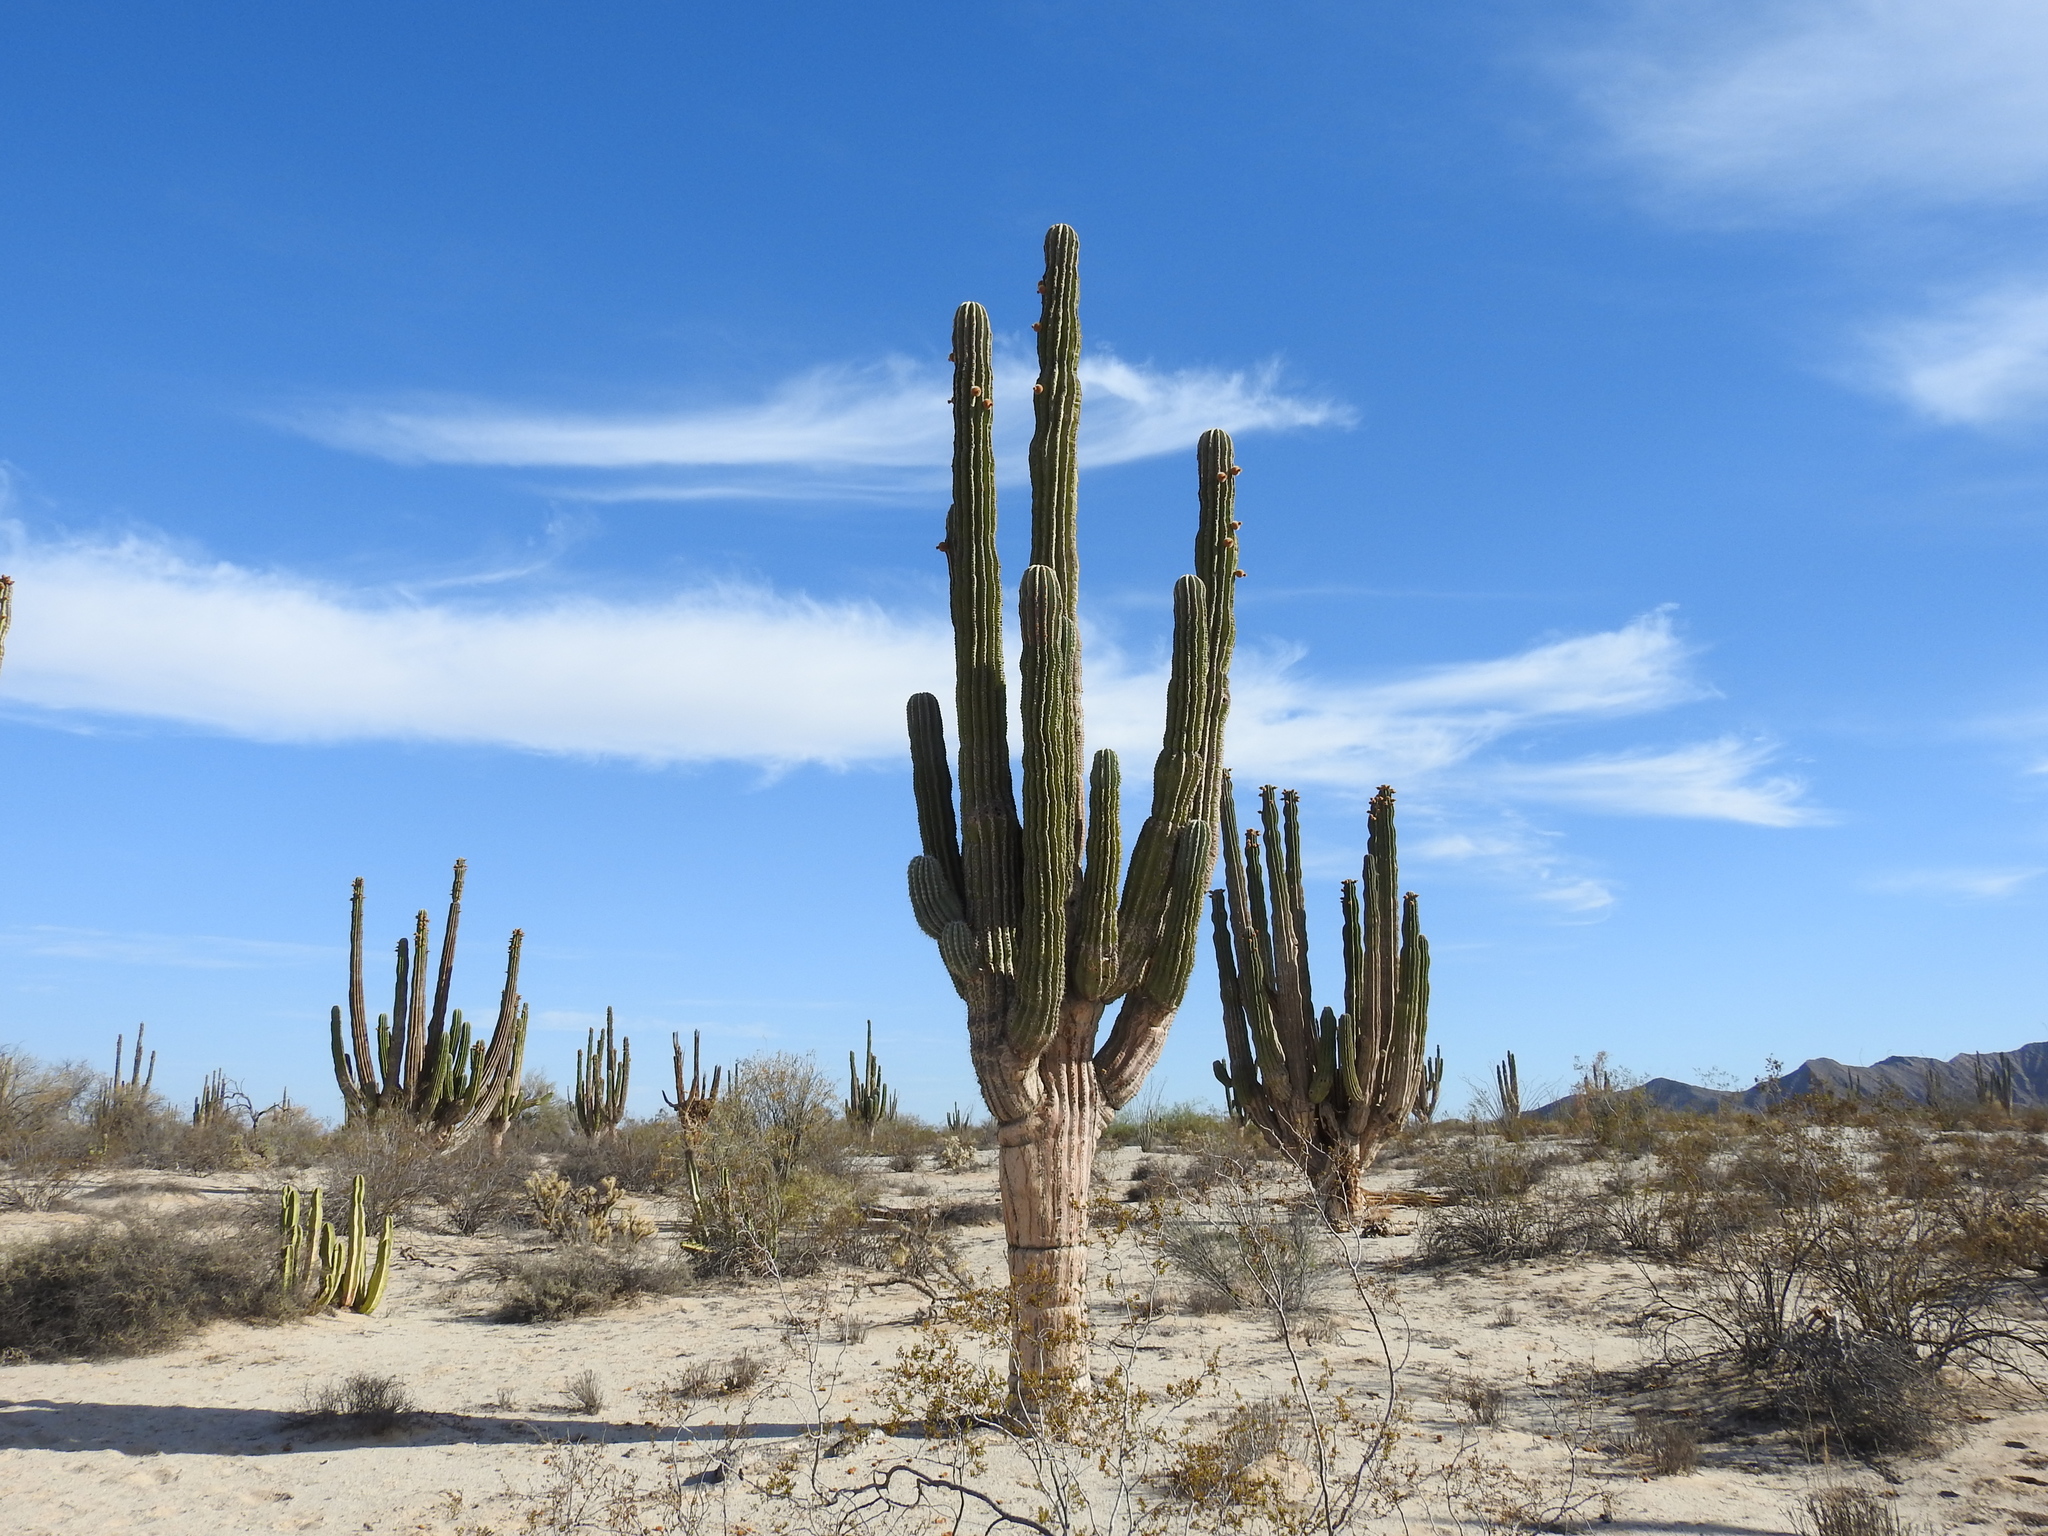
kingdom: Plantae
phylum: Tracheophyta
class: Magnoliopsida
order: Caryophyllales
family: Cactaceae
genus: Pachycereus
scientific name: Pachycereus pringlei
